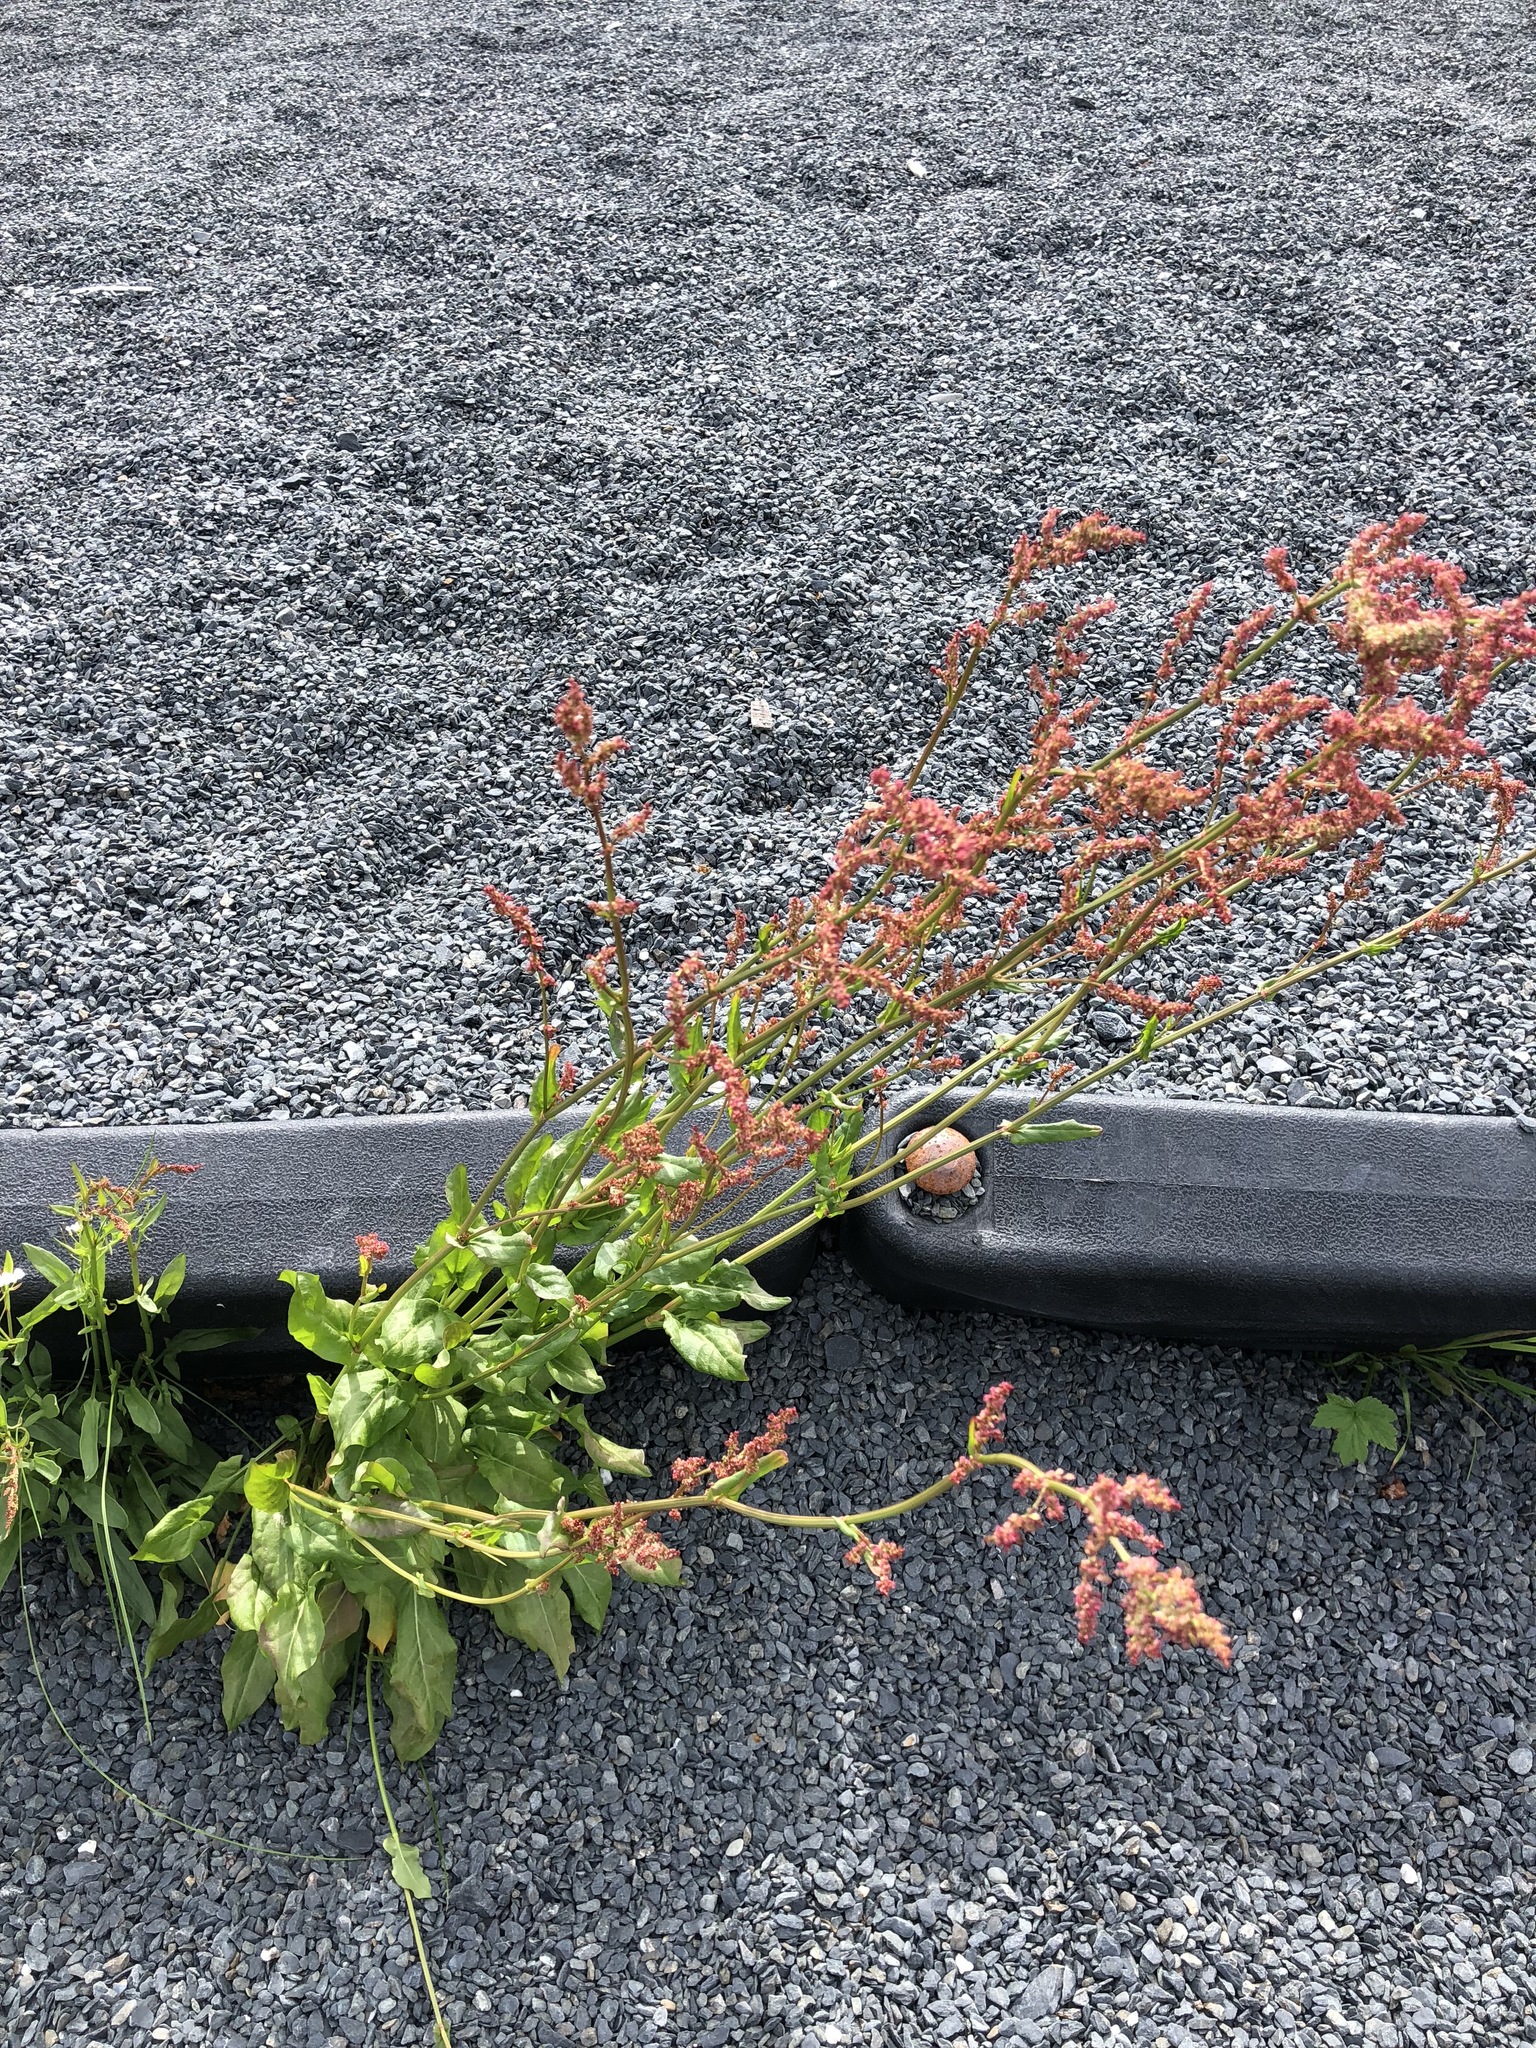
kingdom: Plantae
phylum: Tracheophyta
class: Magnoliopsida
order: Caryophyllales
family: Polygonaceae
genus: Rumex
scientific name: Rumex acetosa
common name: Garden sorrel
